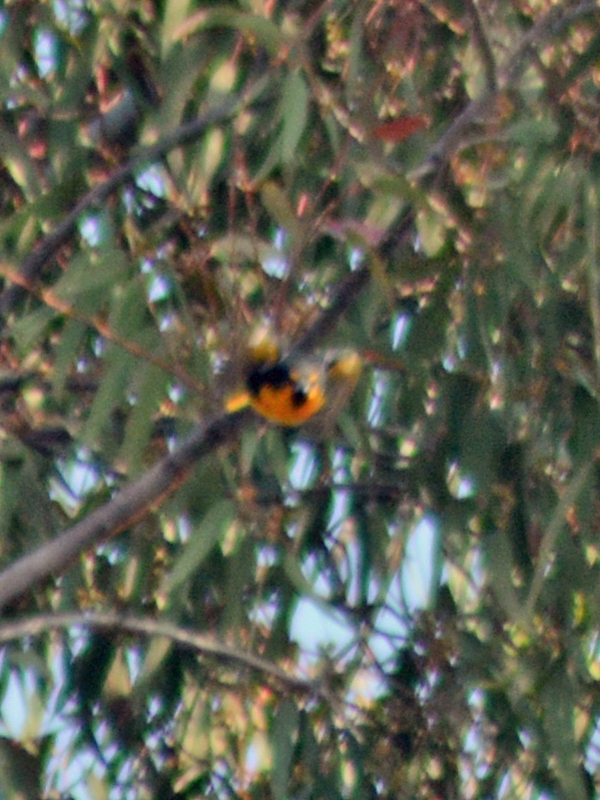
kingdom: Animalia
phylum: Chordata
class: Aves
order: Passeriformes
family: Icteridae
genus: Icterus
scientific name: Icterus abeillei
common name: Black-backed oriole
